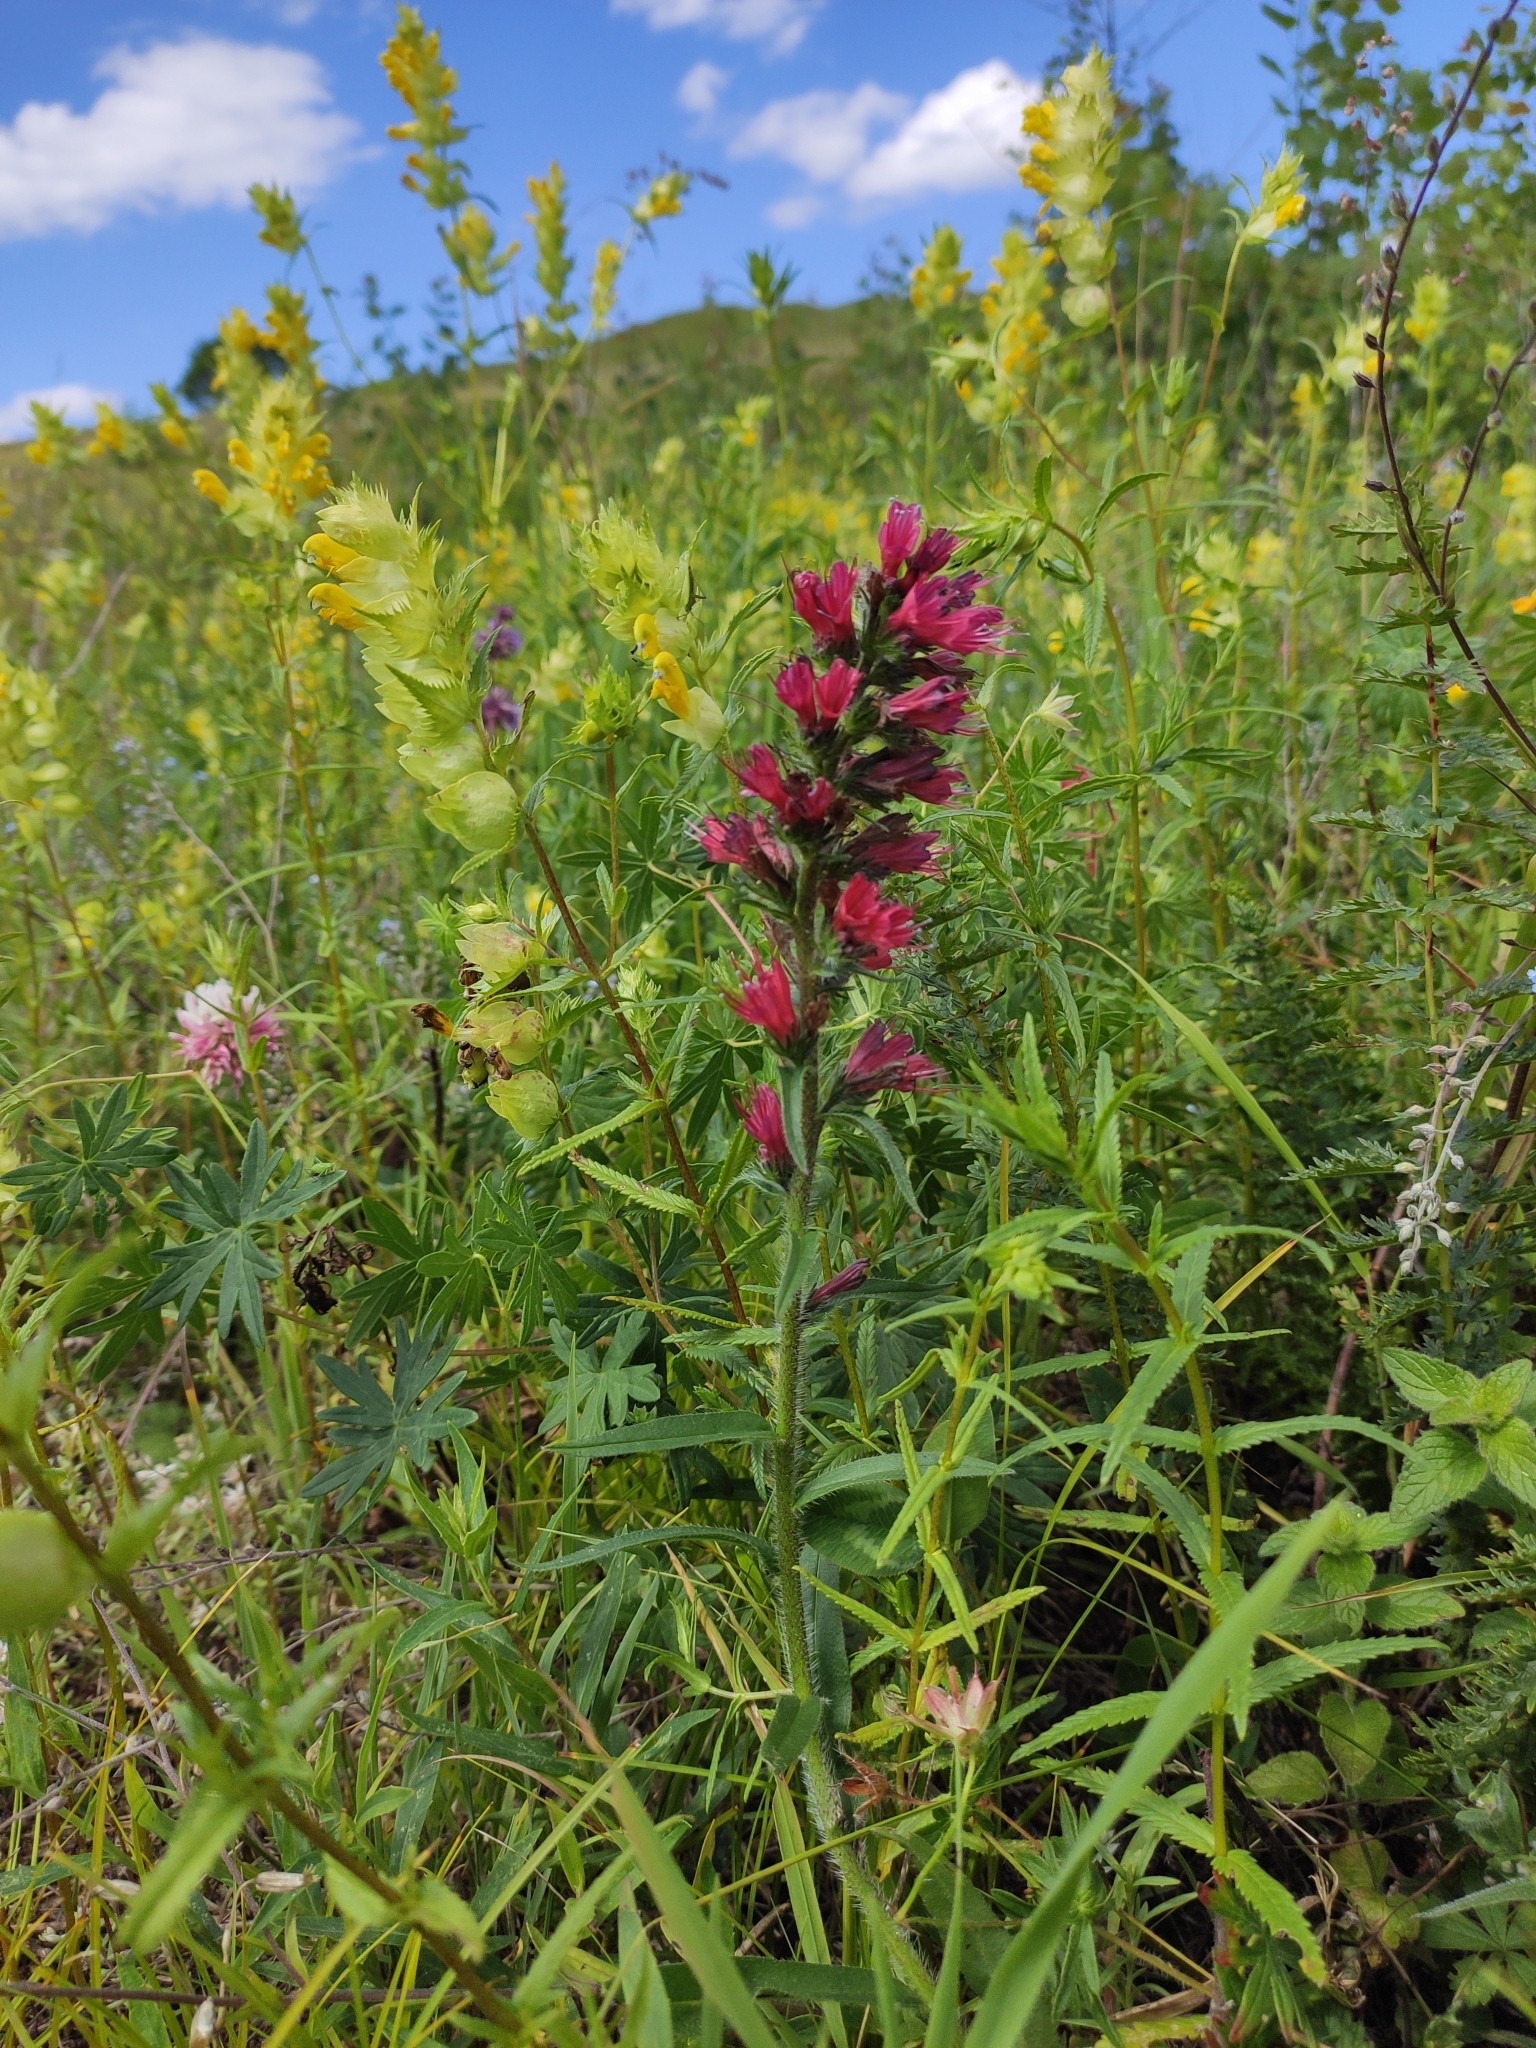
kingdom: Plantae
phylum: Tracheophyta
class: Magnoliopsida
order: Boraginales
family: Boraginaceae
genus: Pontechium
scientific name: Pontechium maculatum
